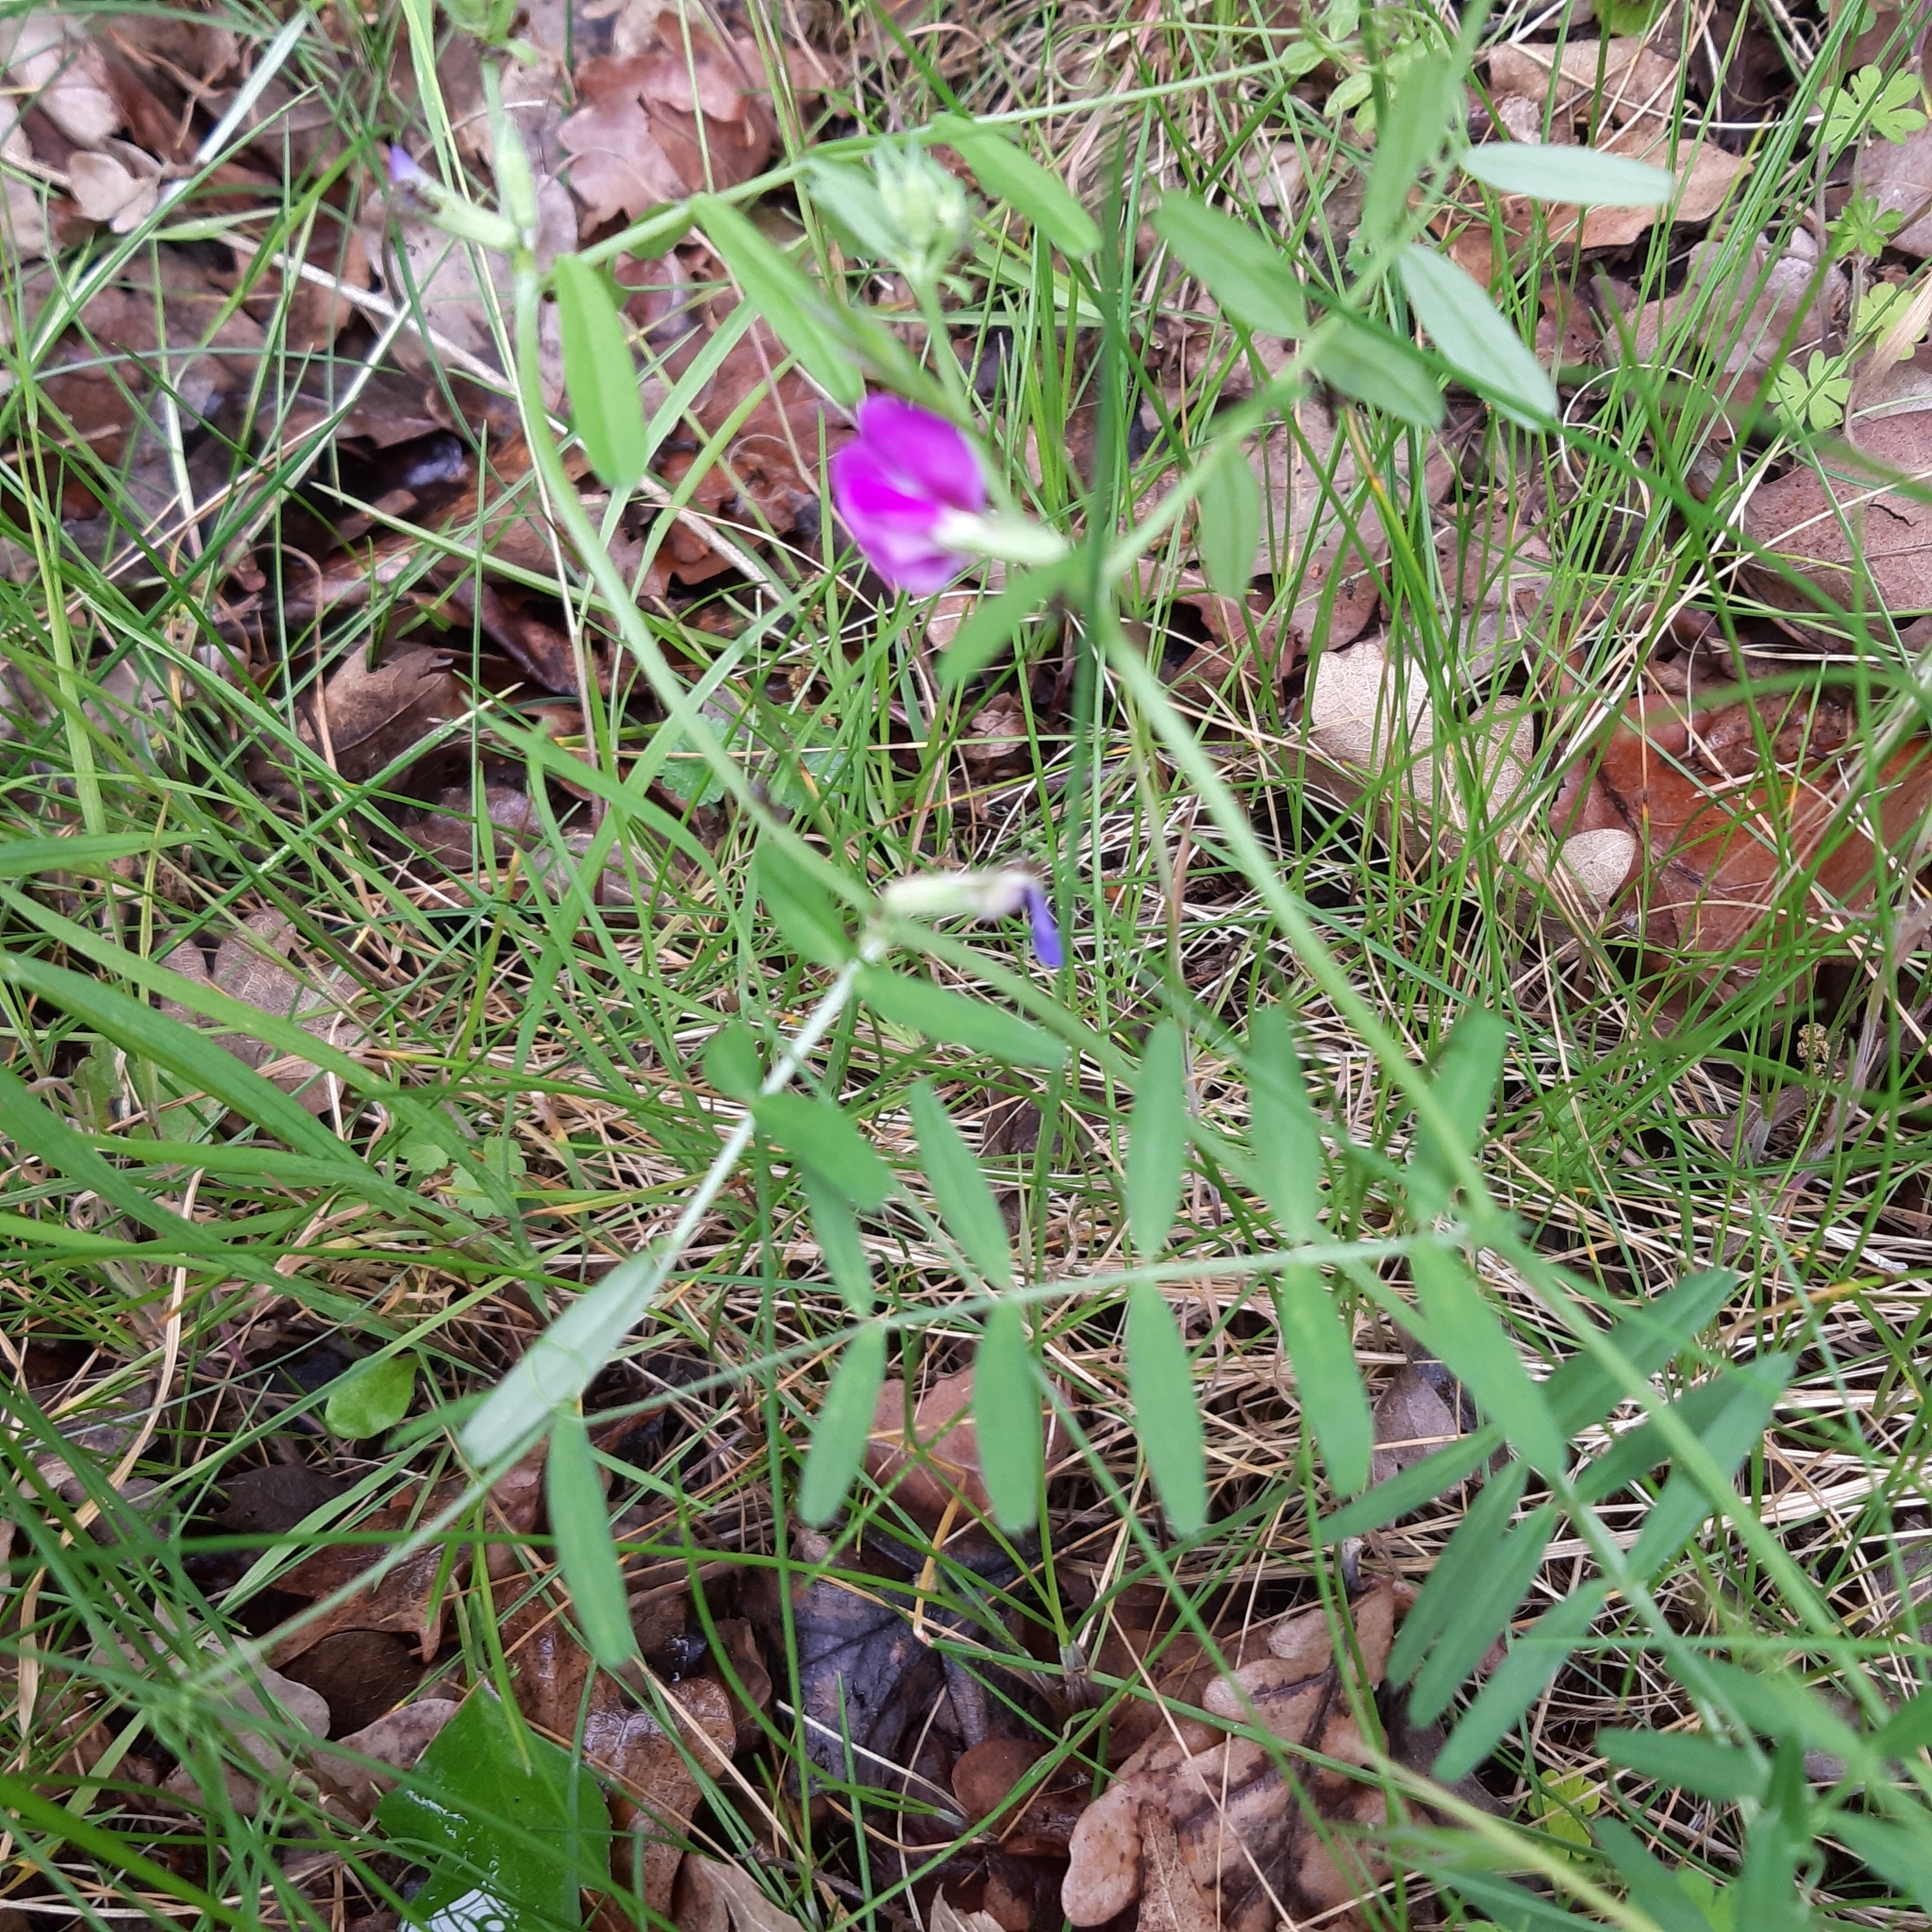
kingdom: Plantae
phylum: Tracheophyta
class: Magnoliopsida
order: Fabales
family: Fabaceae
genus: Vicia
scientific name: Vicia sativa
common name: Garden vetch
